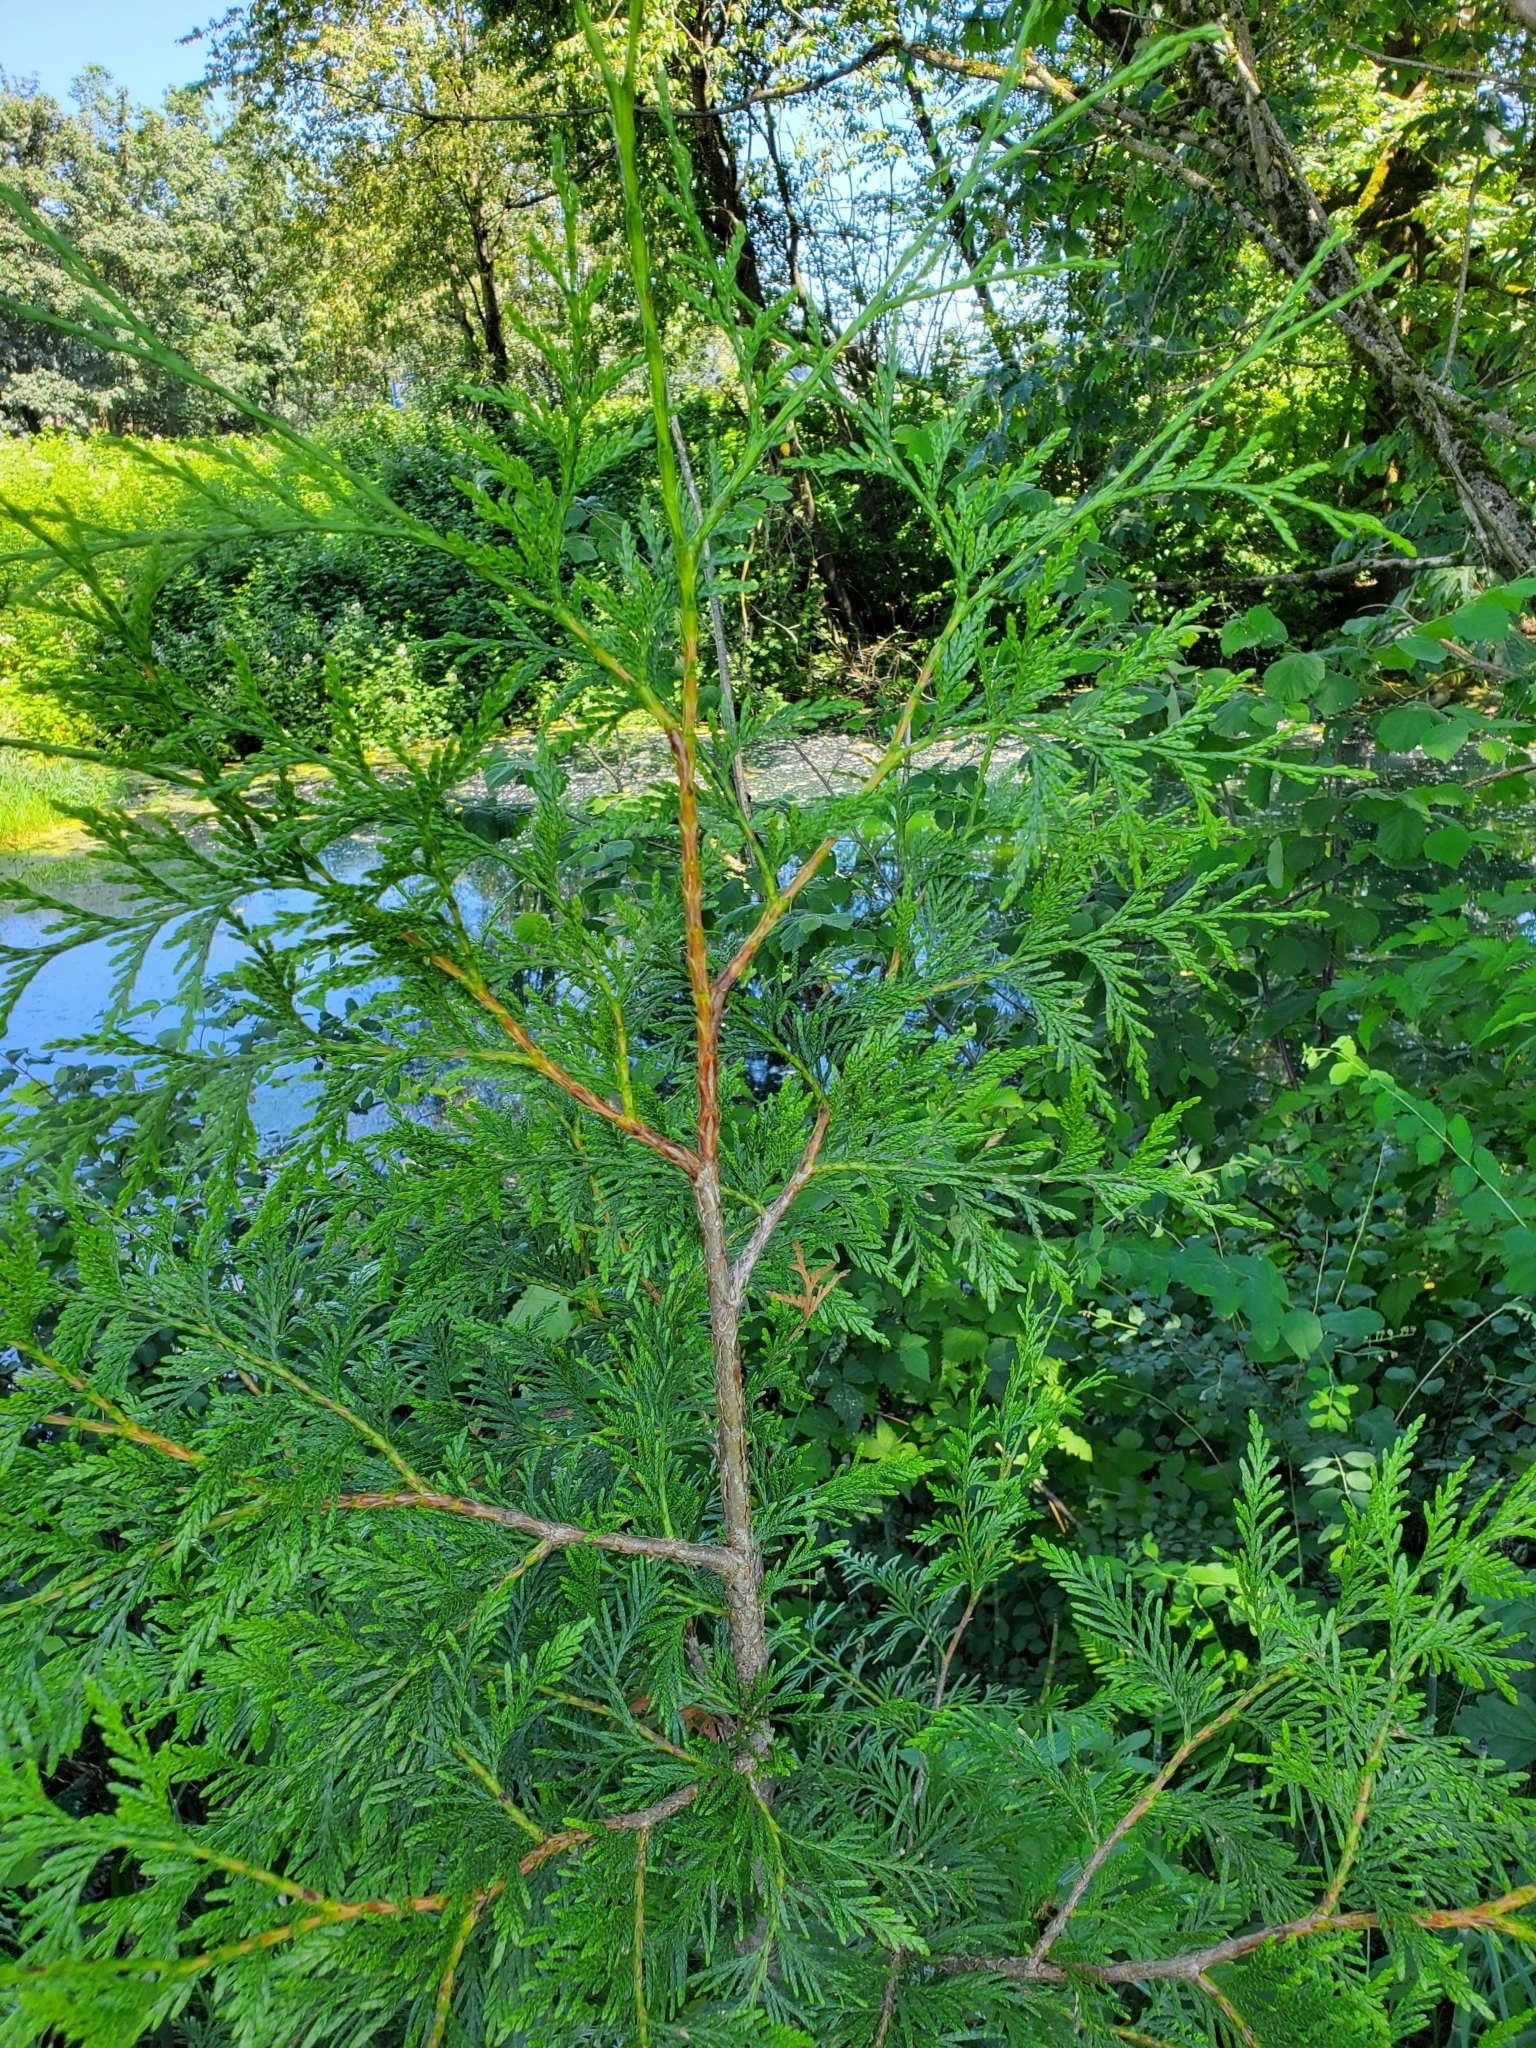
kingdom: Plantae
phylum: Tracheophyta
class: Pinopsida
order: Pinales
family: Cupressaceae
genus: Thuja
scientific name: Thuja plicata
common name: Western red-cedar
